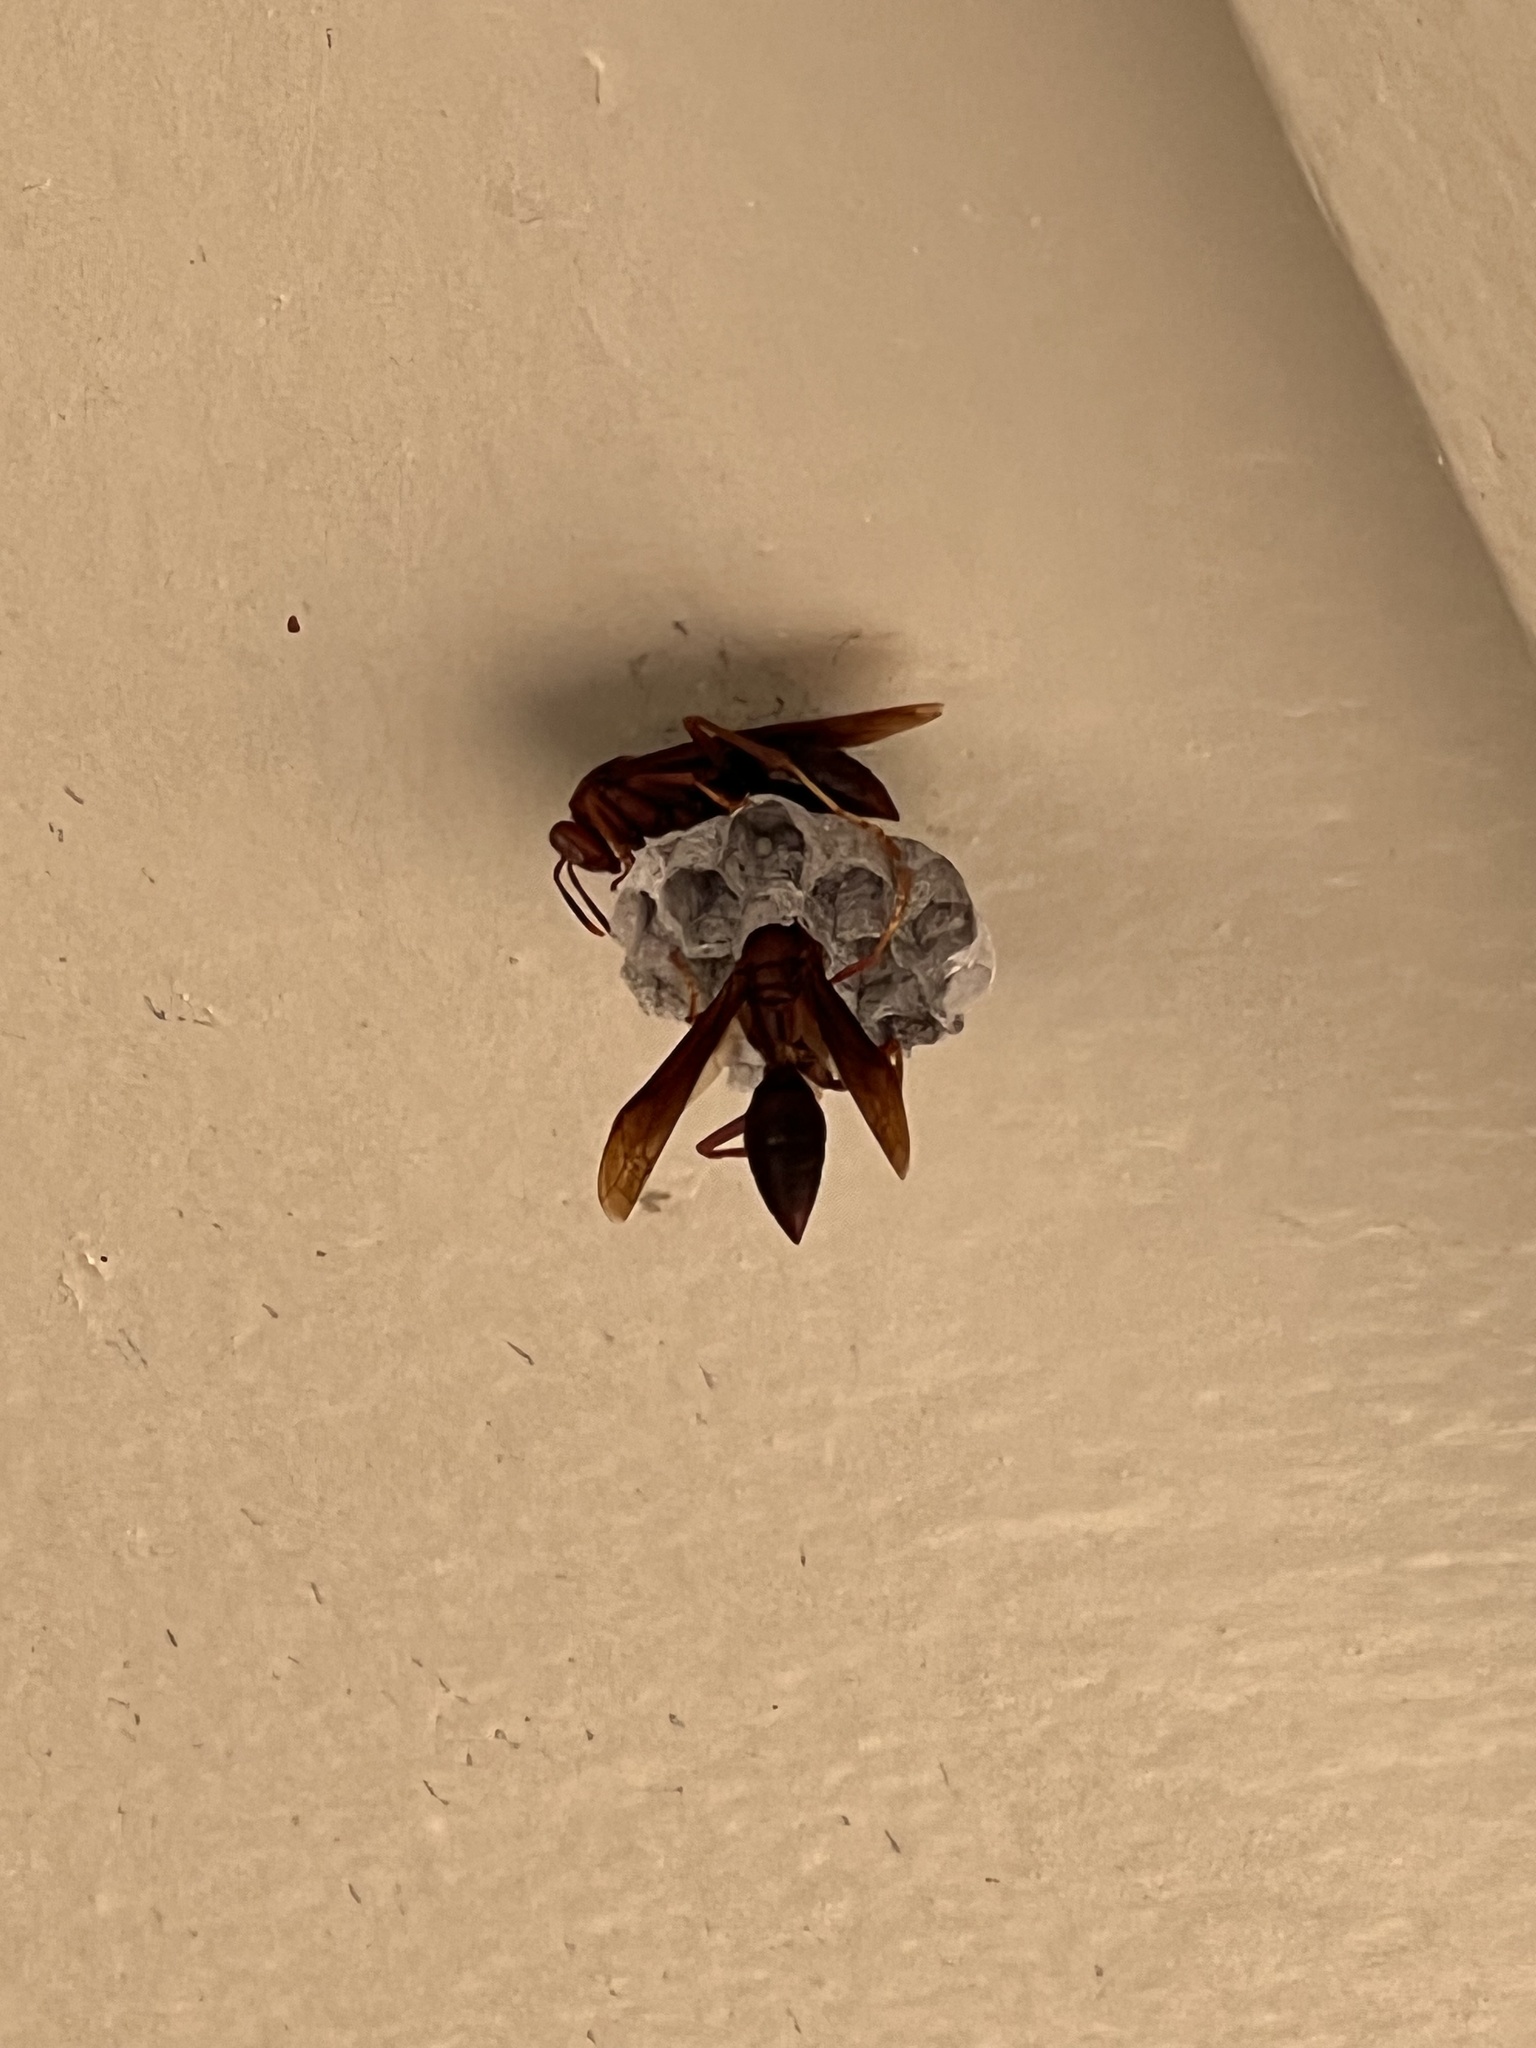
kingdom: Animalia
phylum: Arthropoda
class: Insecta
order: Hymenoptera
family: Eumenidae
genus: Polistes
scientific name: Polistes major
